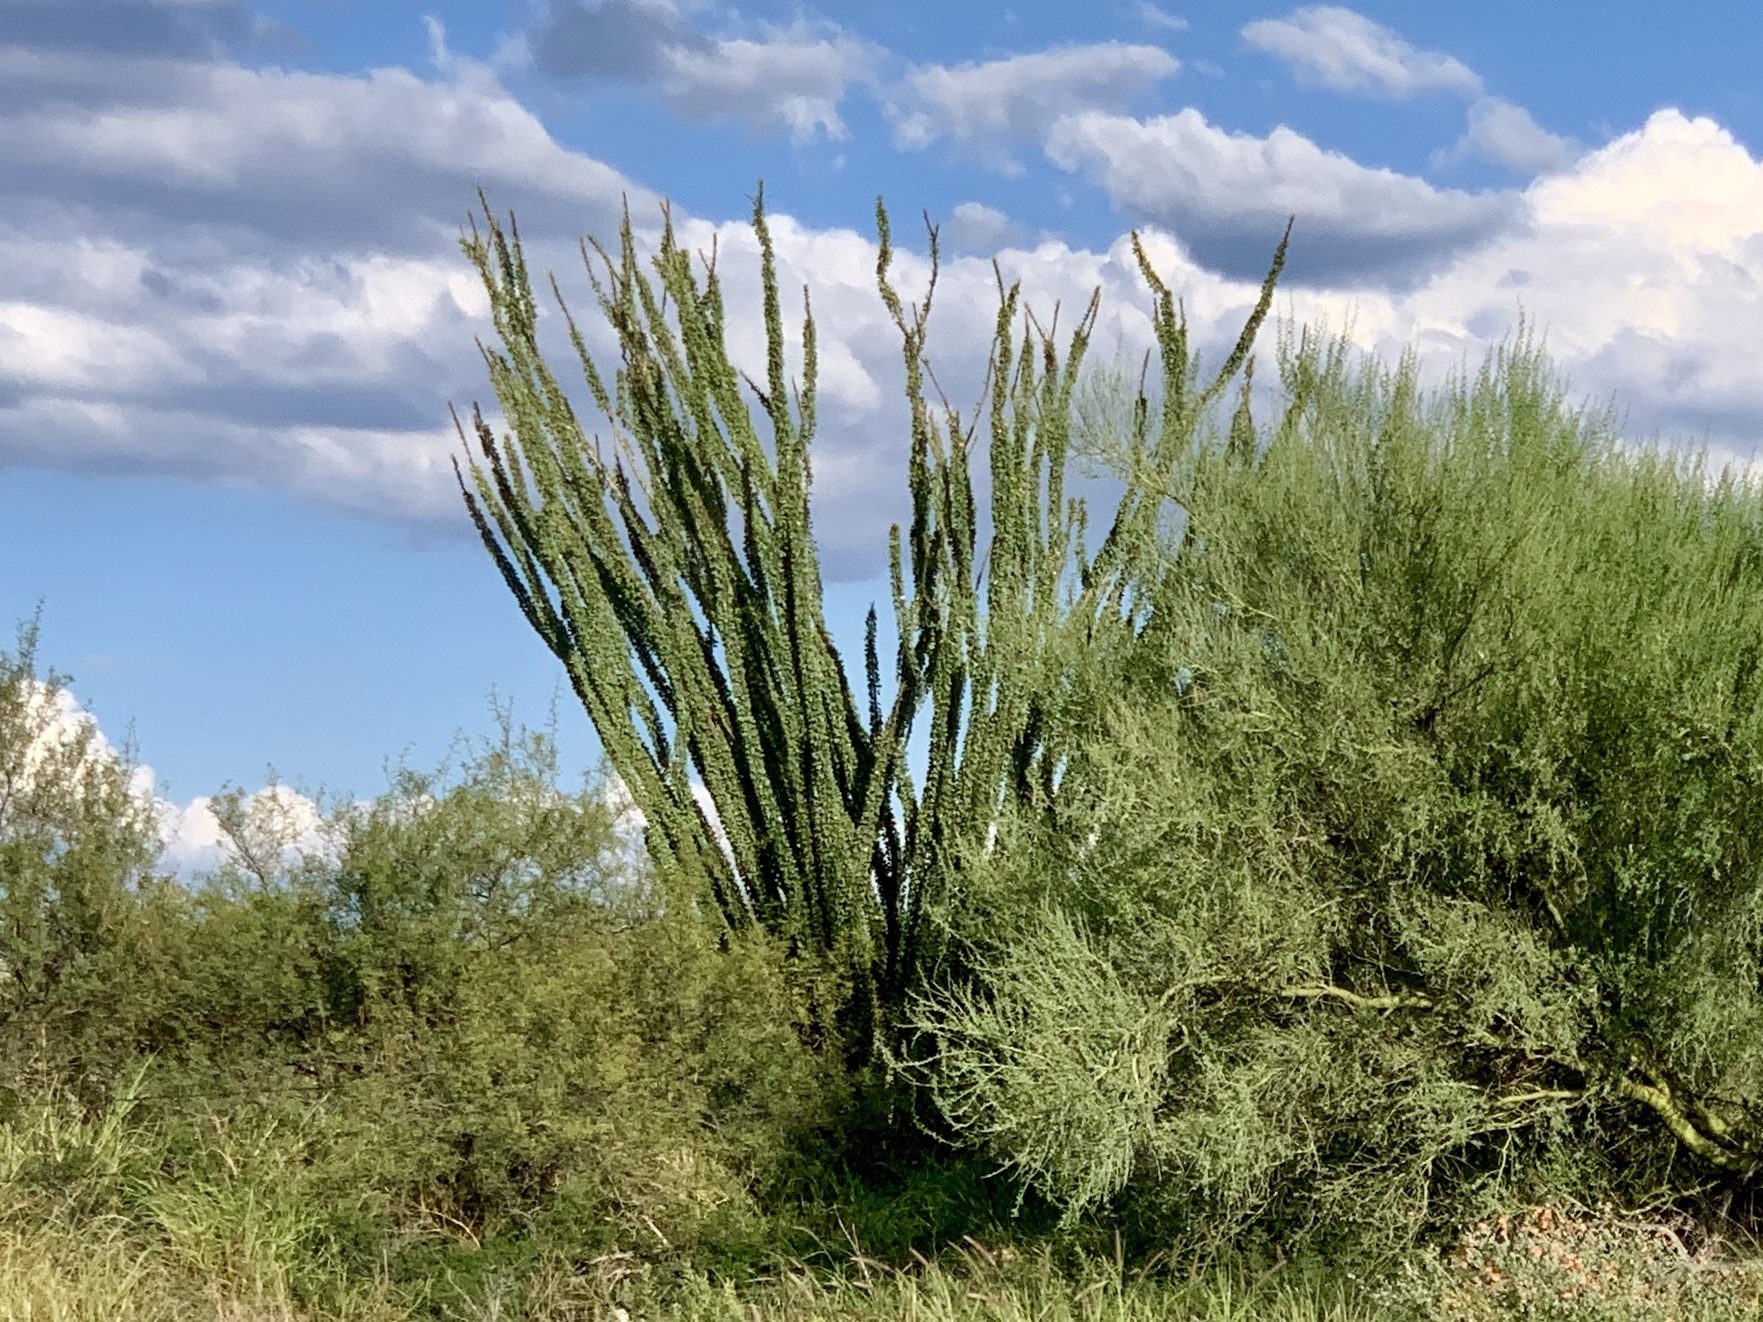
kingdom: Plantae
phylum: Tracheophyta
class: Magnoliopsida
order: Ericales
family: Fouquieriaceae
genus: Fouquieria
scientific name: Fouquieria splendens
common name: Vine-cactus
